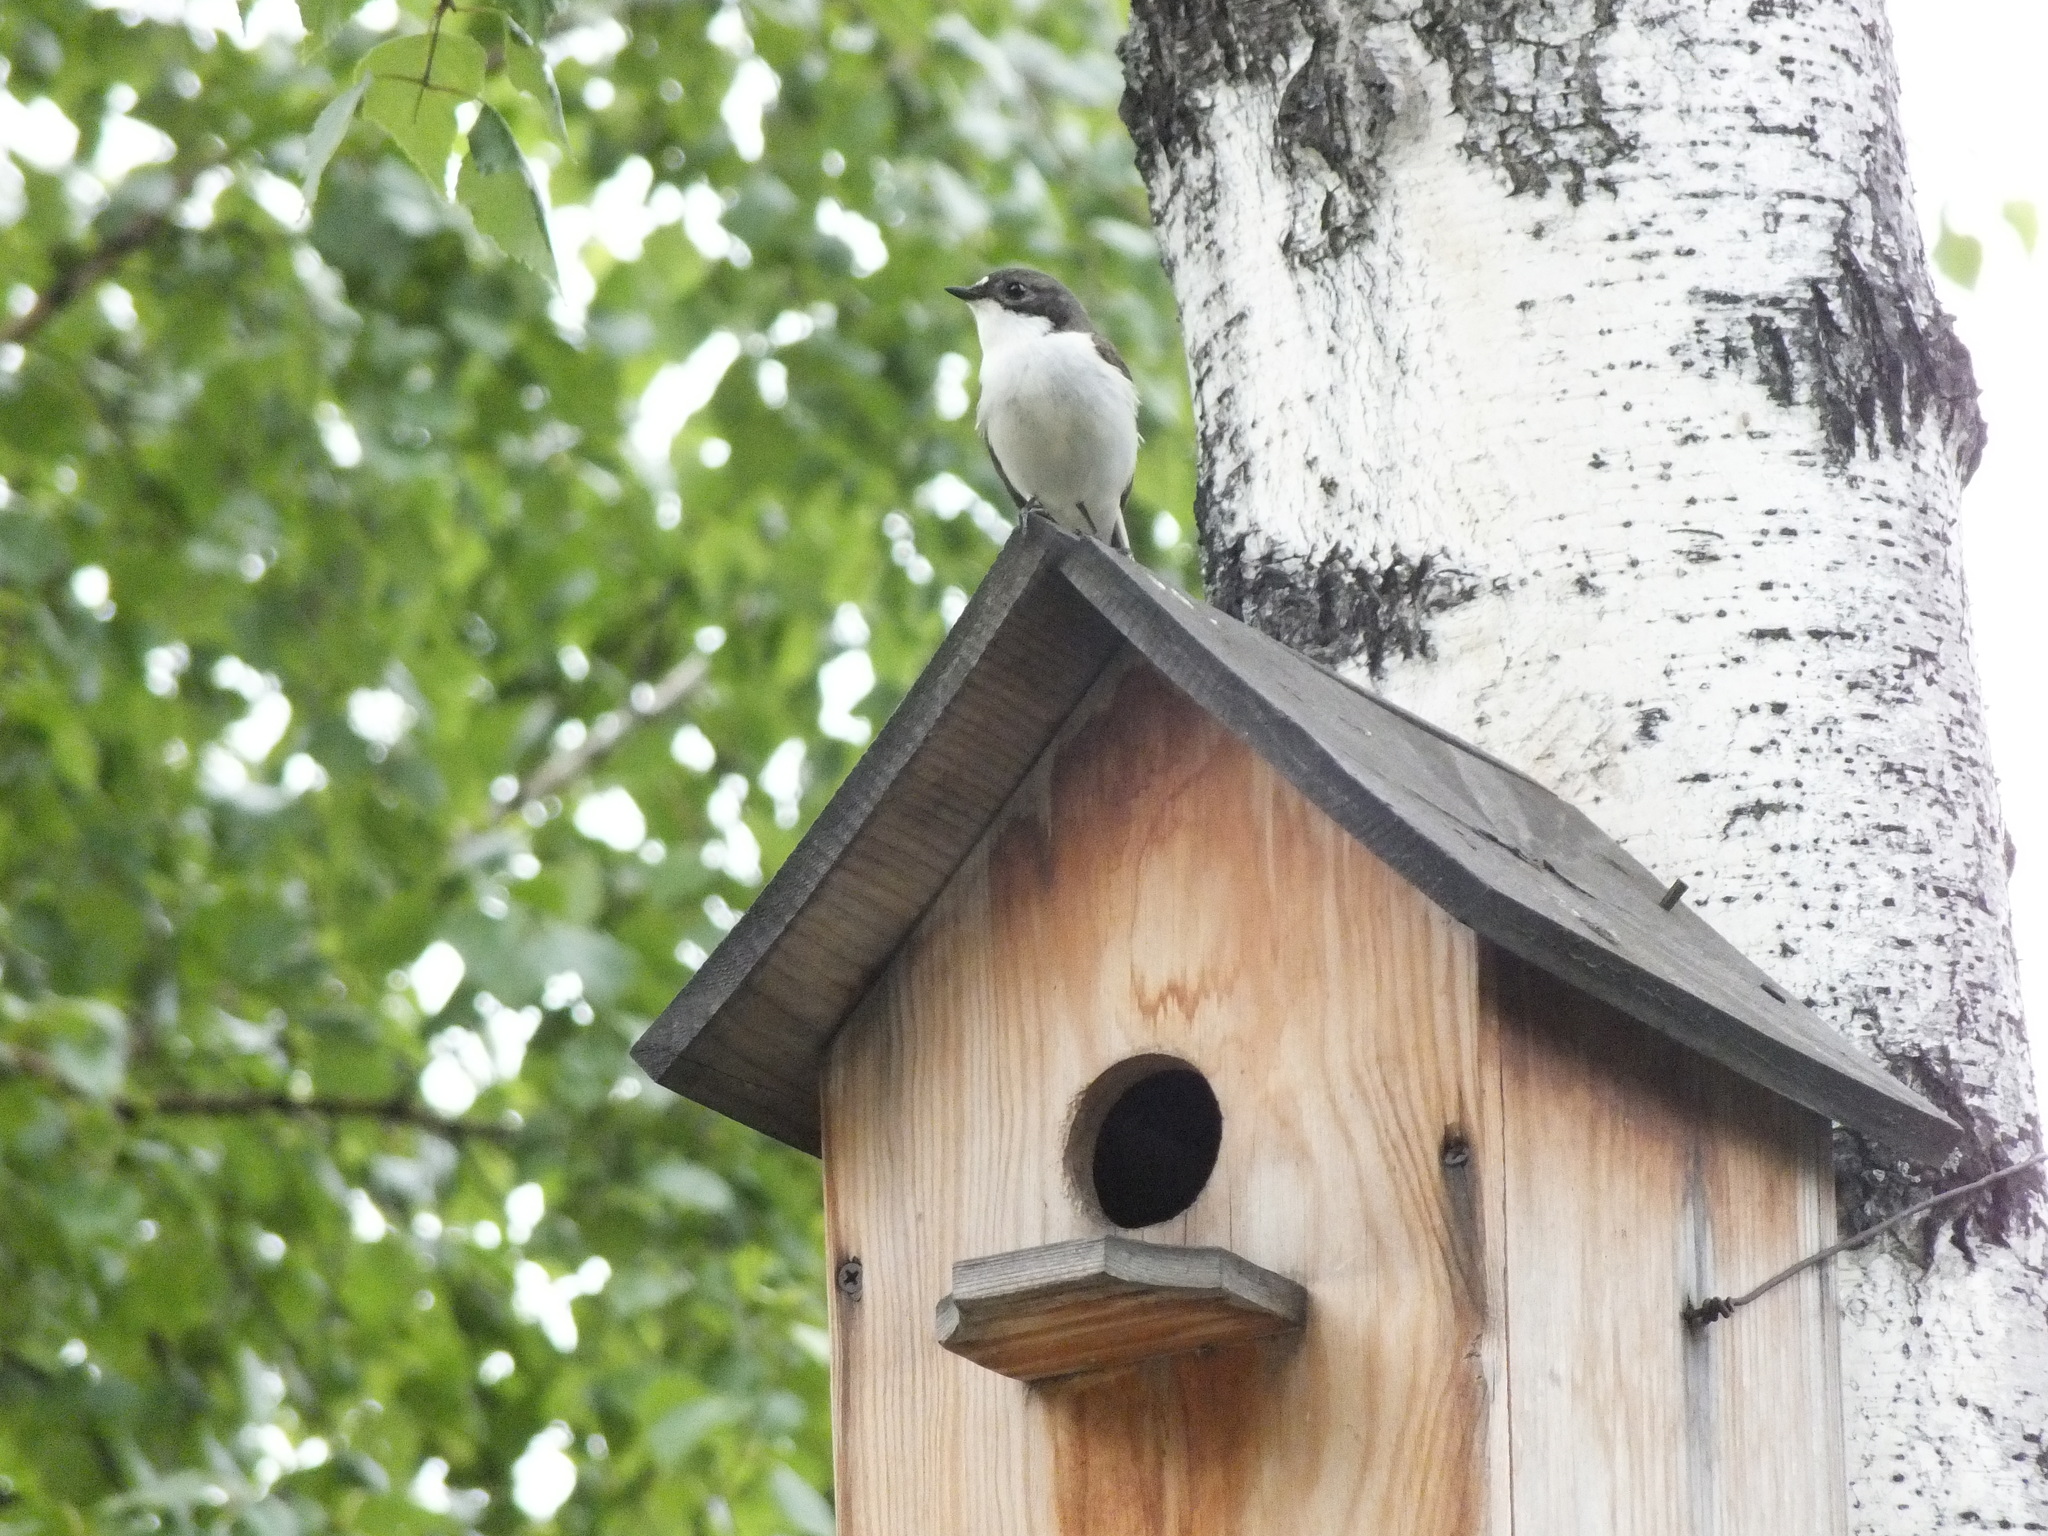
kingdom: Animalia
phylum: Chordata
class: Aves
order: Passeriformes
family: Muscicapidae
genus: Ficedula
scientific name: Ficedula hypoleuca
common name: European pied flycatcher
